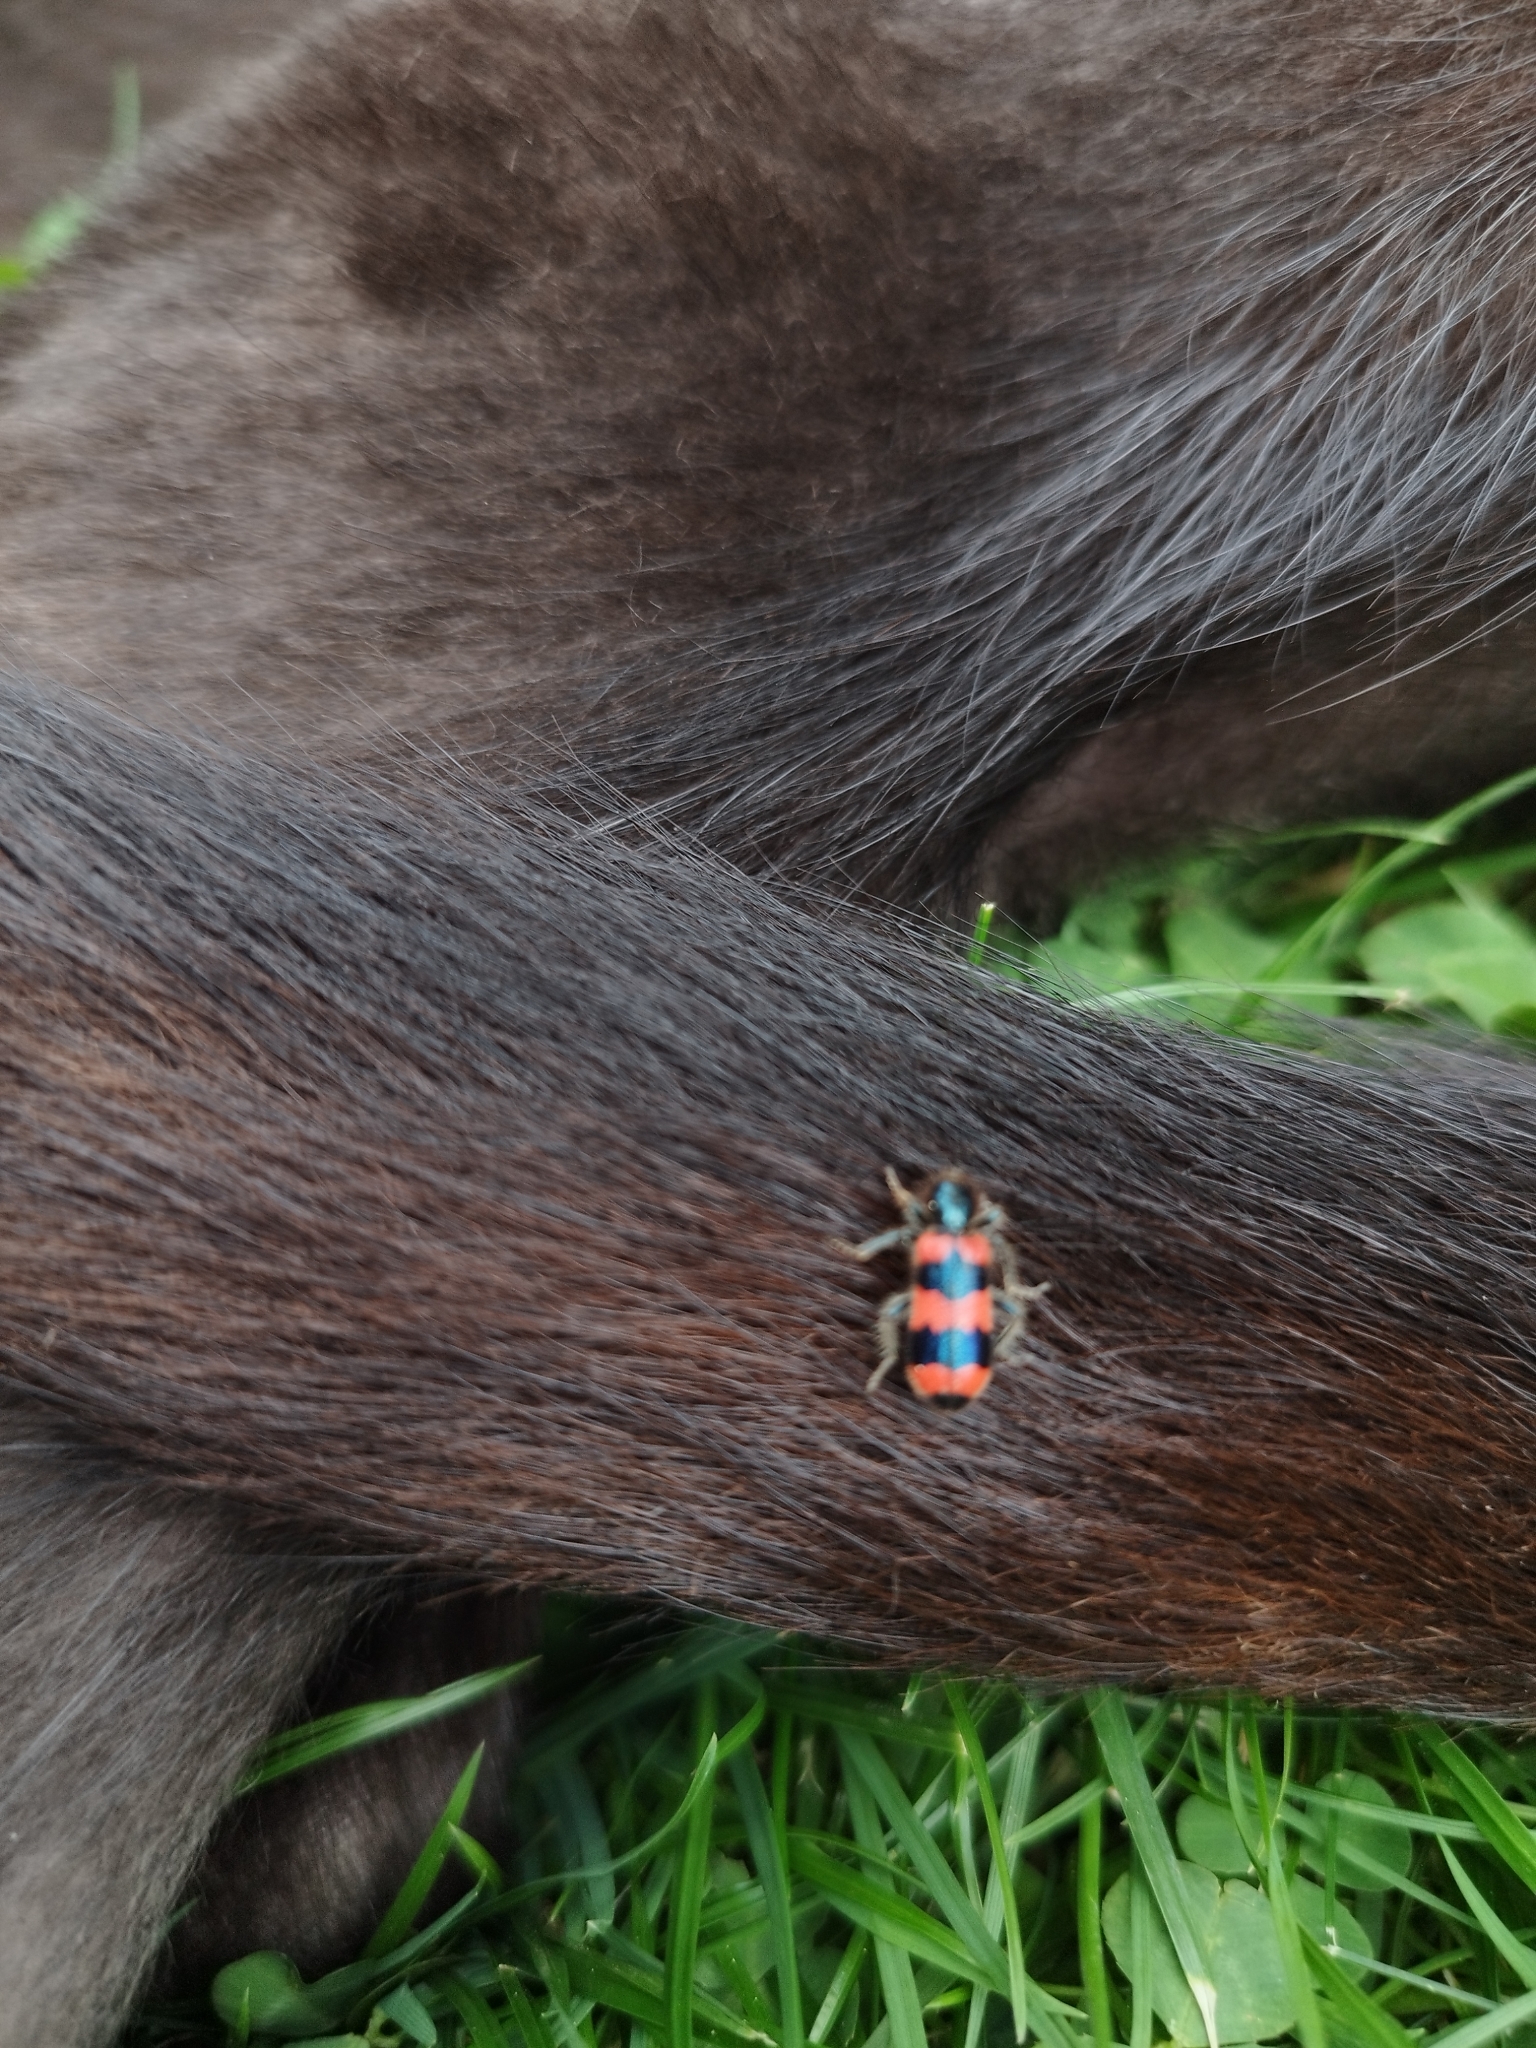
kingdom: Animalia
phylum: Arthropoda
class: Insecta
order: Coleoptera
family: Cleridae
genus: Trichodes
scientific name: Trichodes apiarius
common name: Bee-eating beetle
